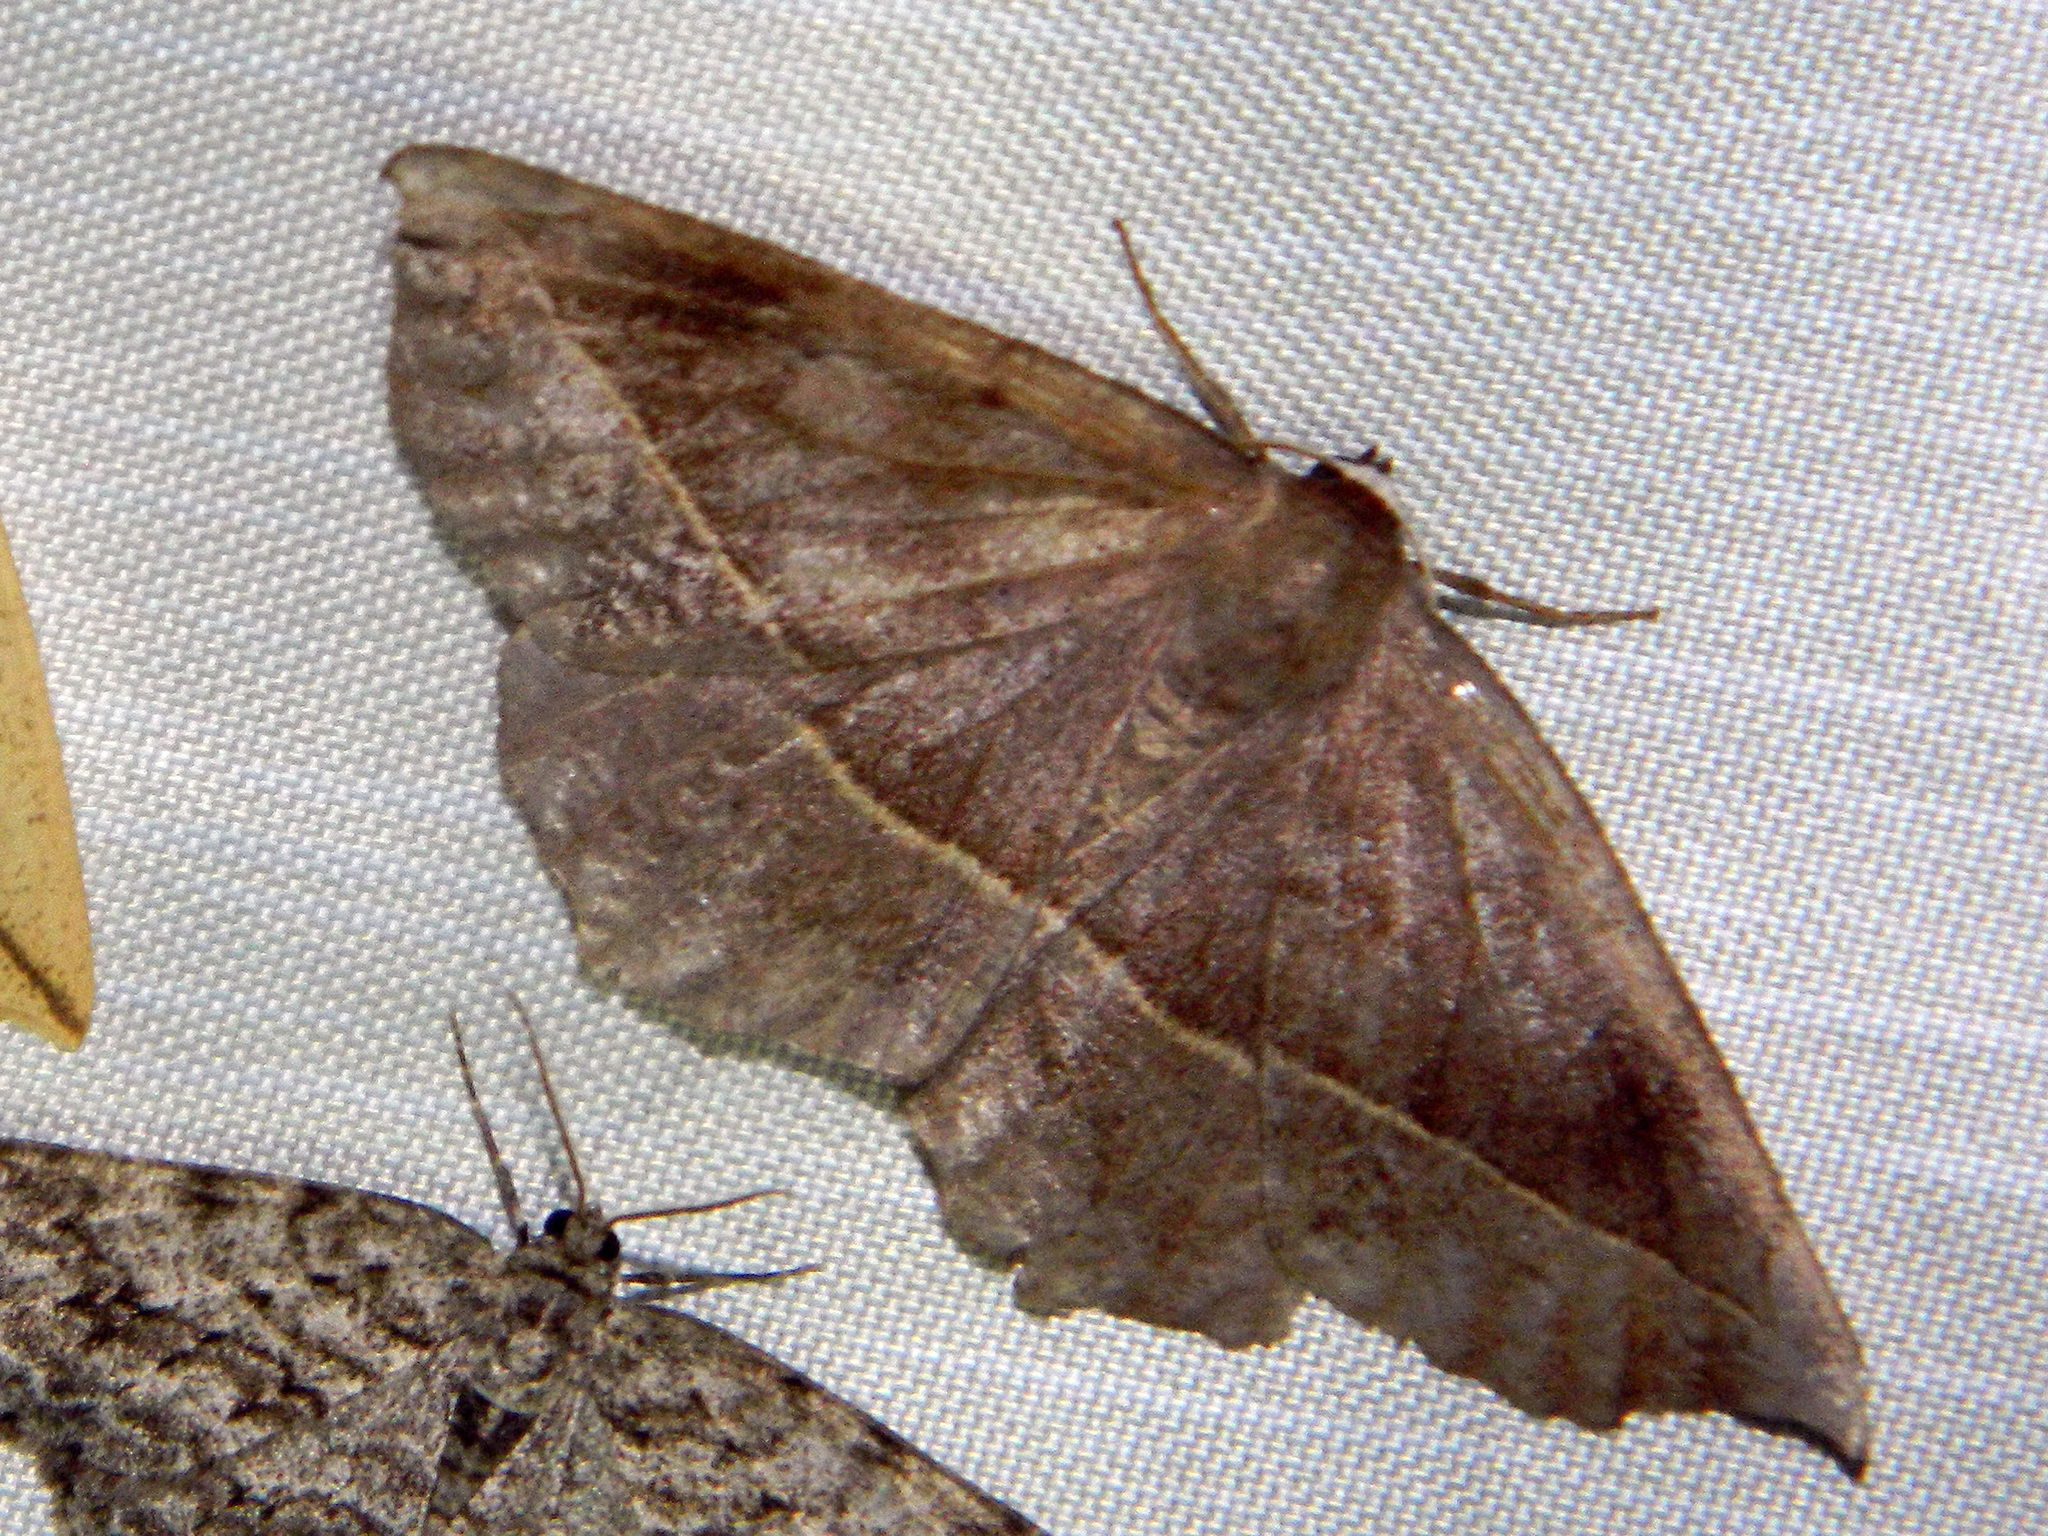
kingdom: Animalia
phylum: Arthropoda
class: Insecta
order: Lepidoptera
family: Geometridae
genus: Eutrapela
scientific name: Eutrapela clemataria
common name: Curved-toothed geometer
